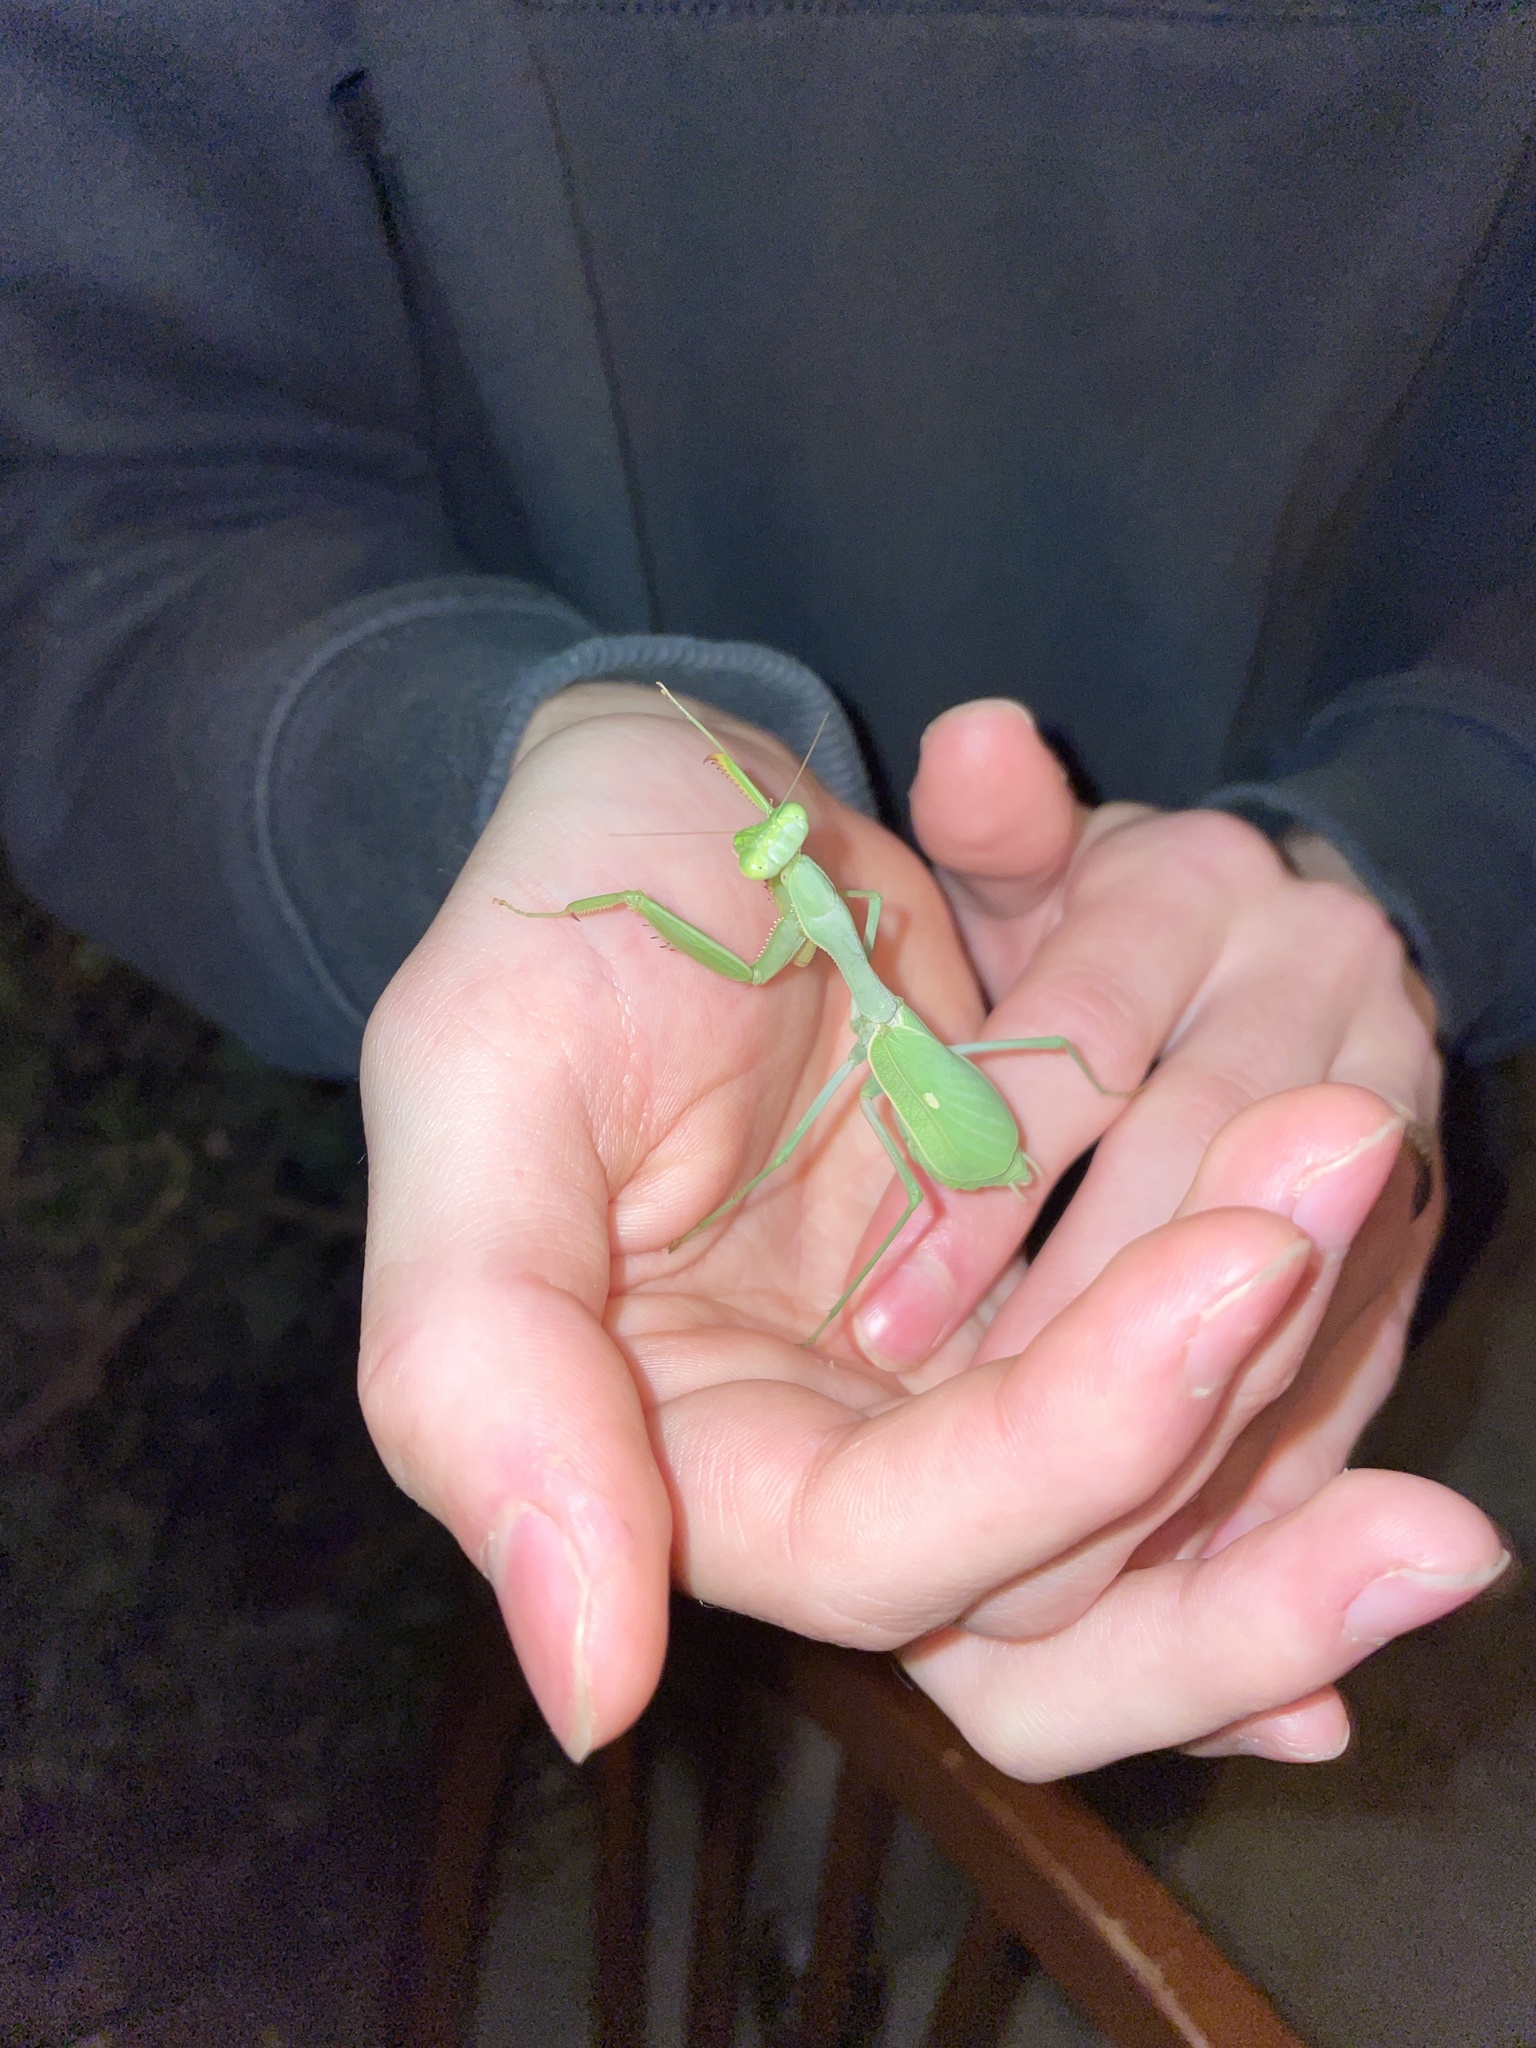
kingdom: Animalia
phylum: Arthropoda
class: Insecta
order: Mantodea
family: Mantidae
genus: Stagmomantis
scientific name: Stagmomantis limbata
